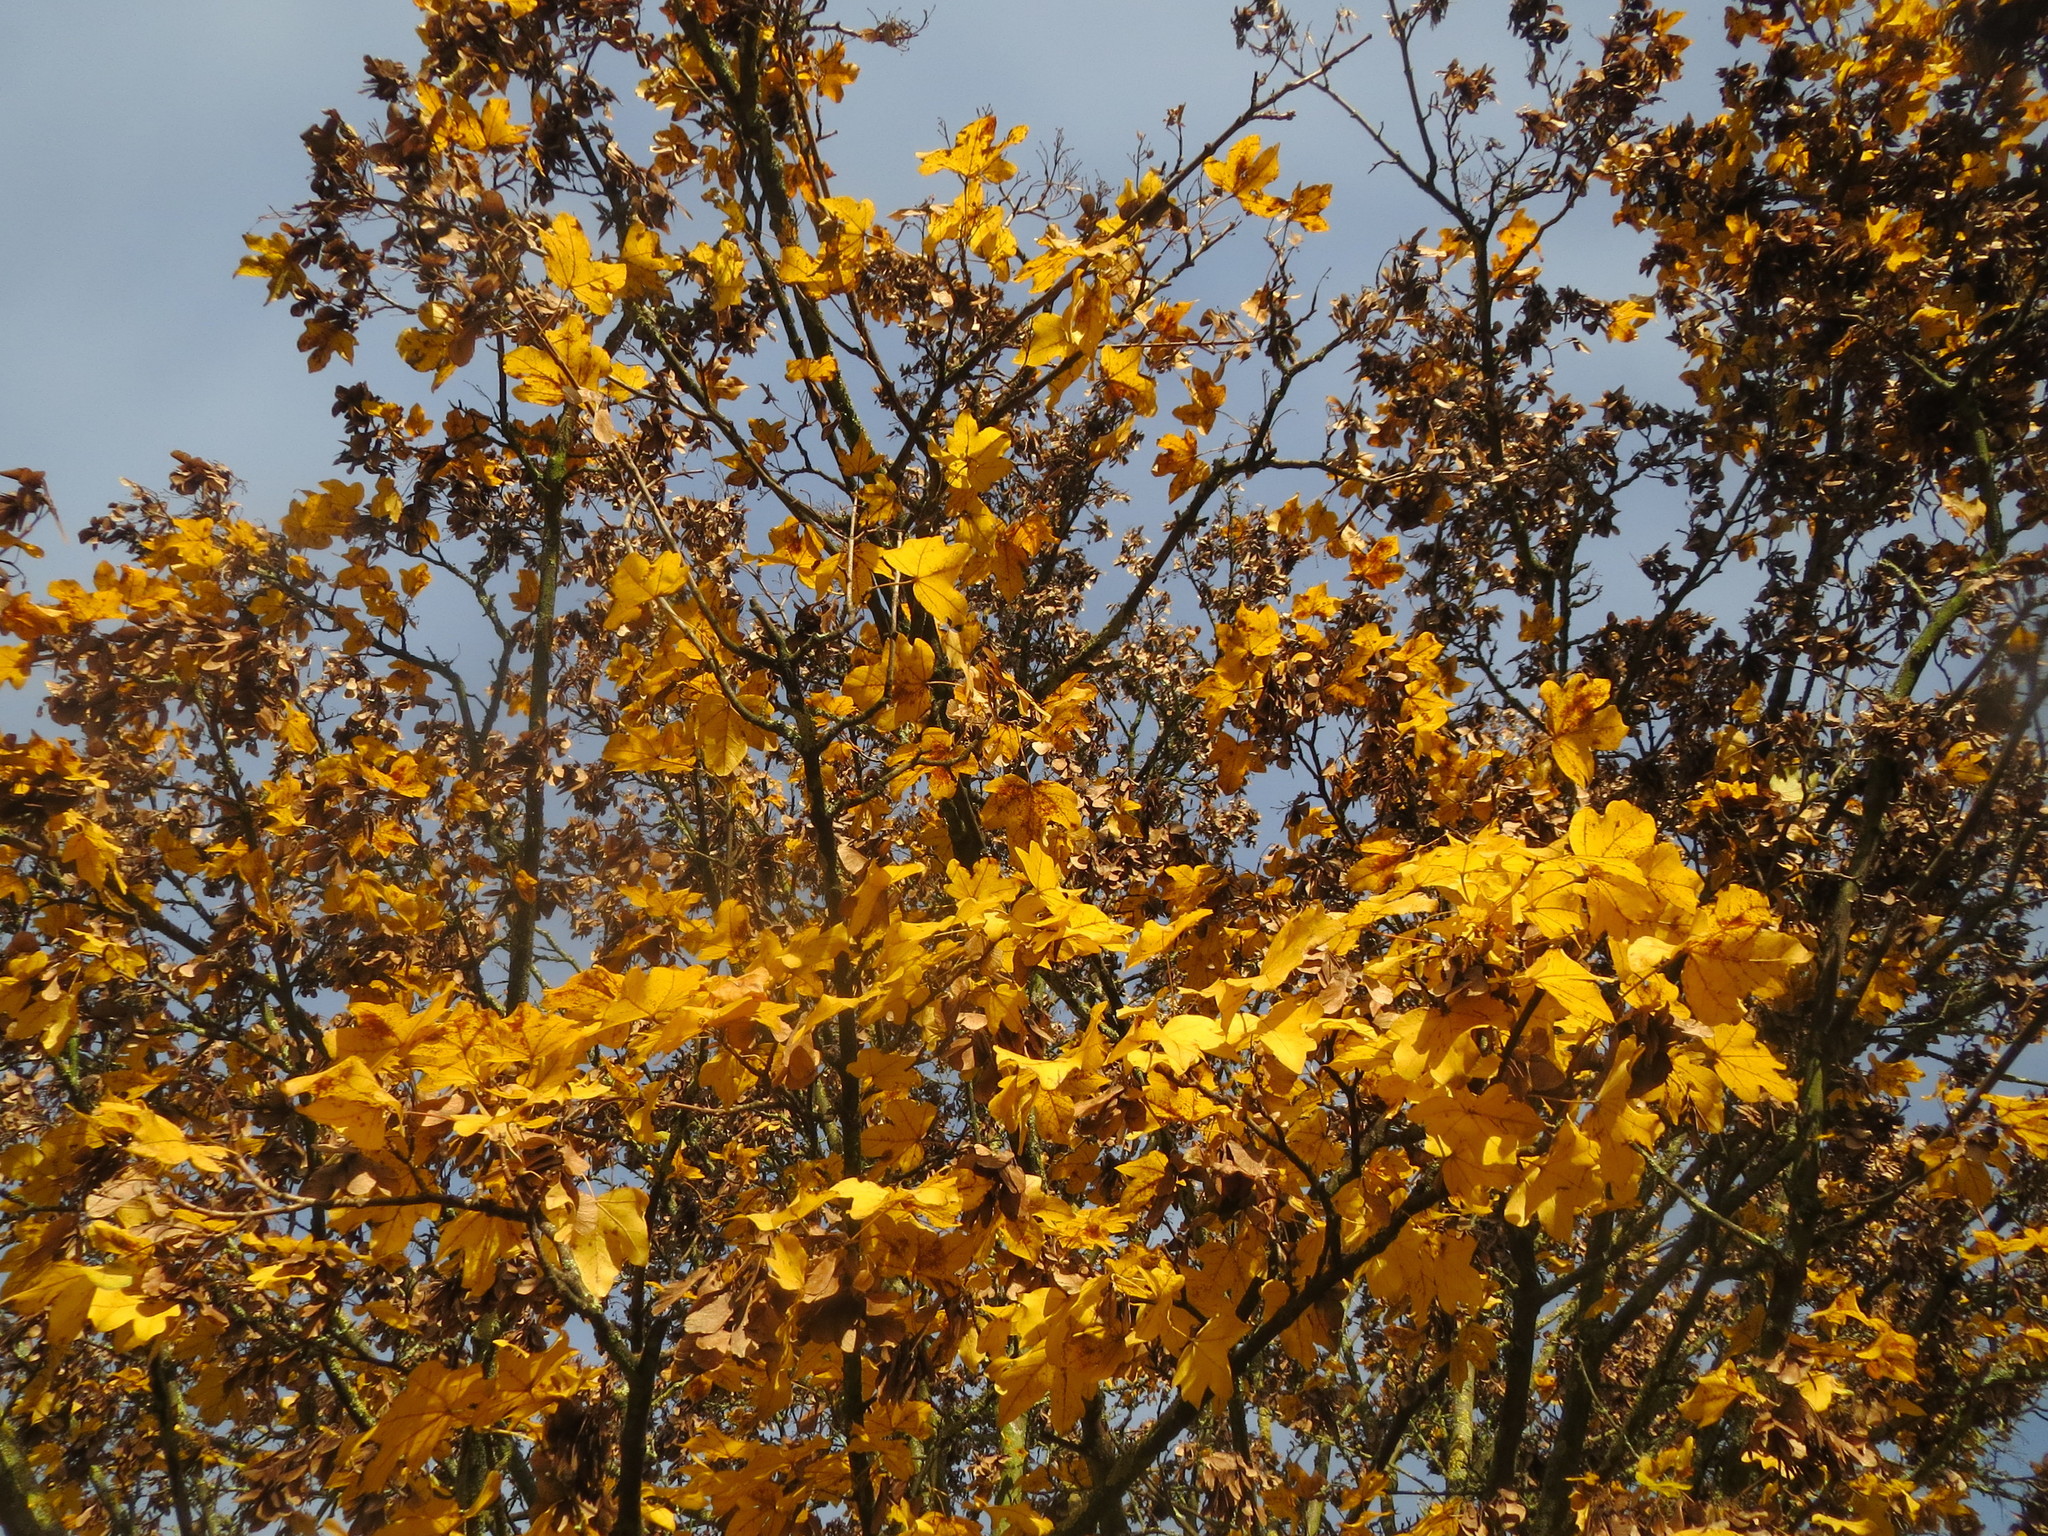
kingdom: Plantae
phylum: Tracheophyta
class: Magnoliopsida
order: Sapindales
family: Sapindaceae
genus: Acer
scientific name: Acer campestre
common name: Field maple
